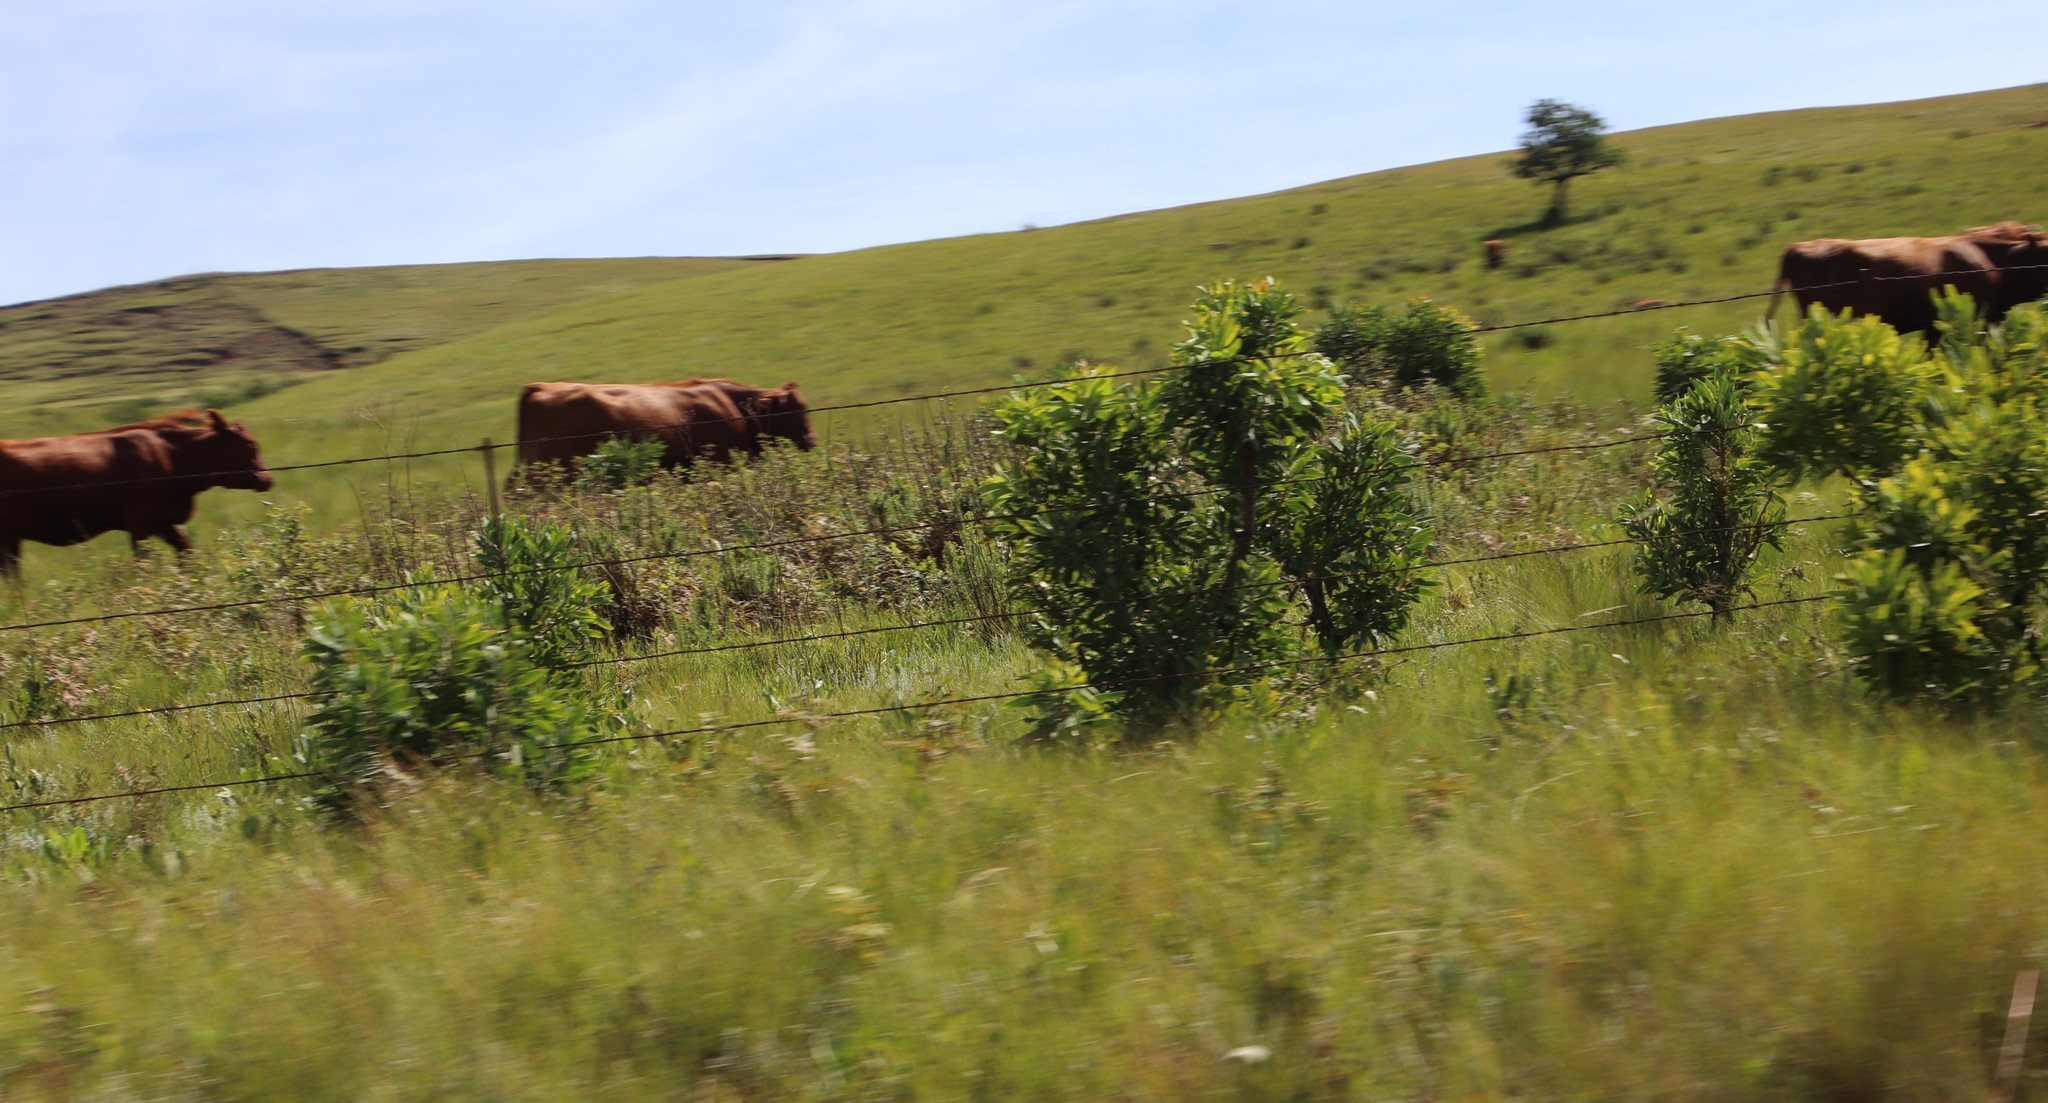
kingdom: Plantae
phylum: Tracheophyta
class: Magnoliopsida
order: Proteales
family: Proteaceae
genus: Protea
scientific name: Protea caffra
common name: Common sugarbush
